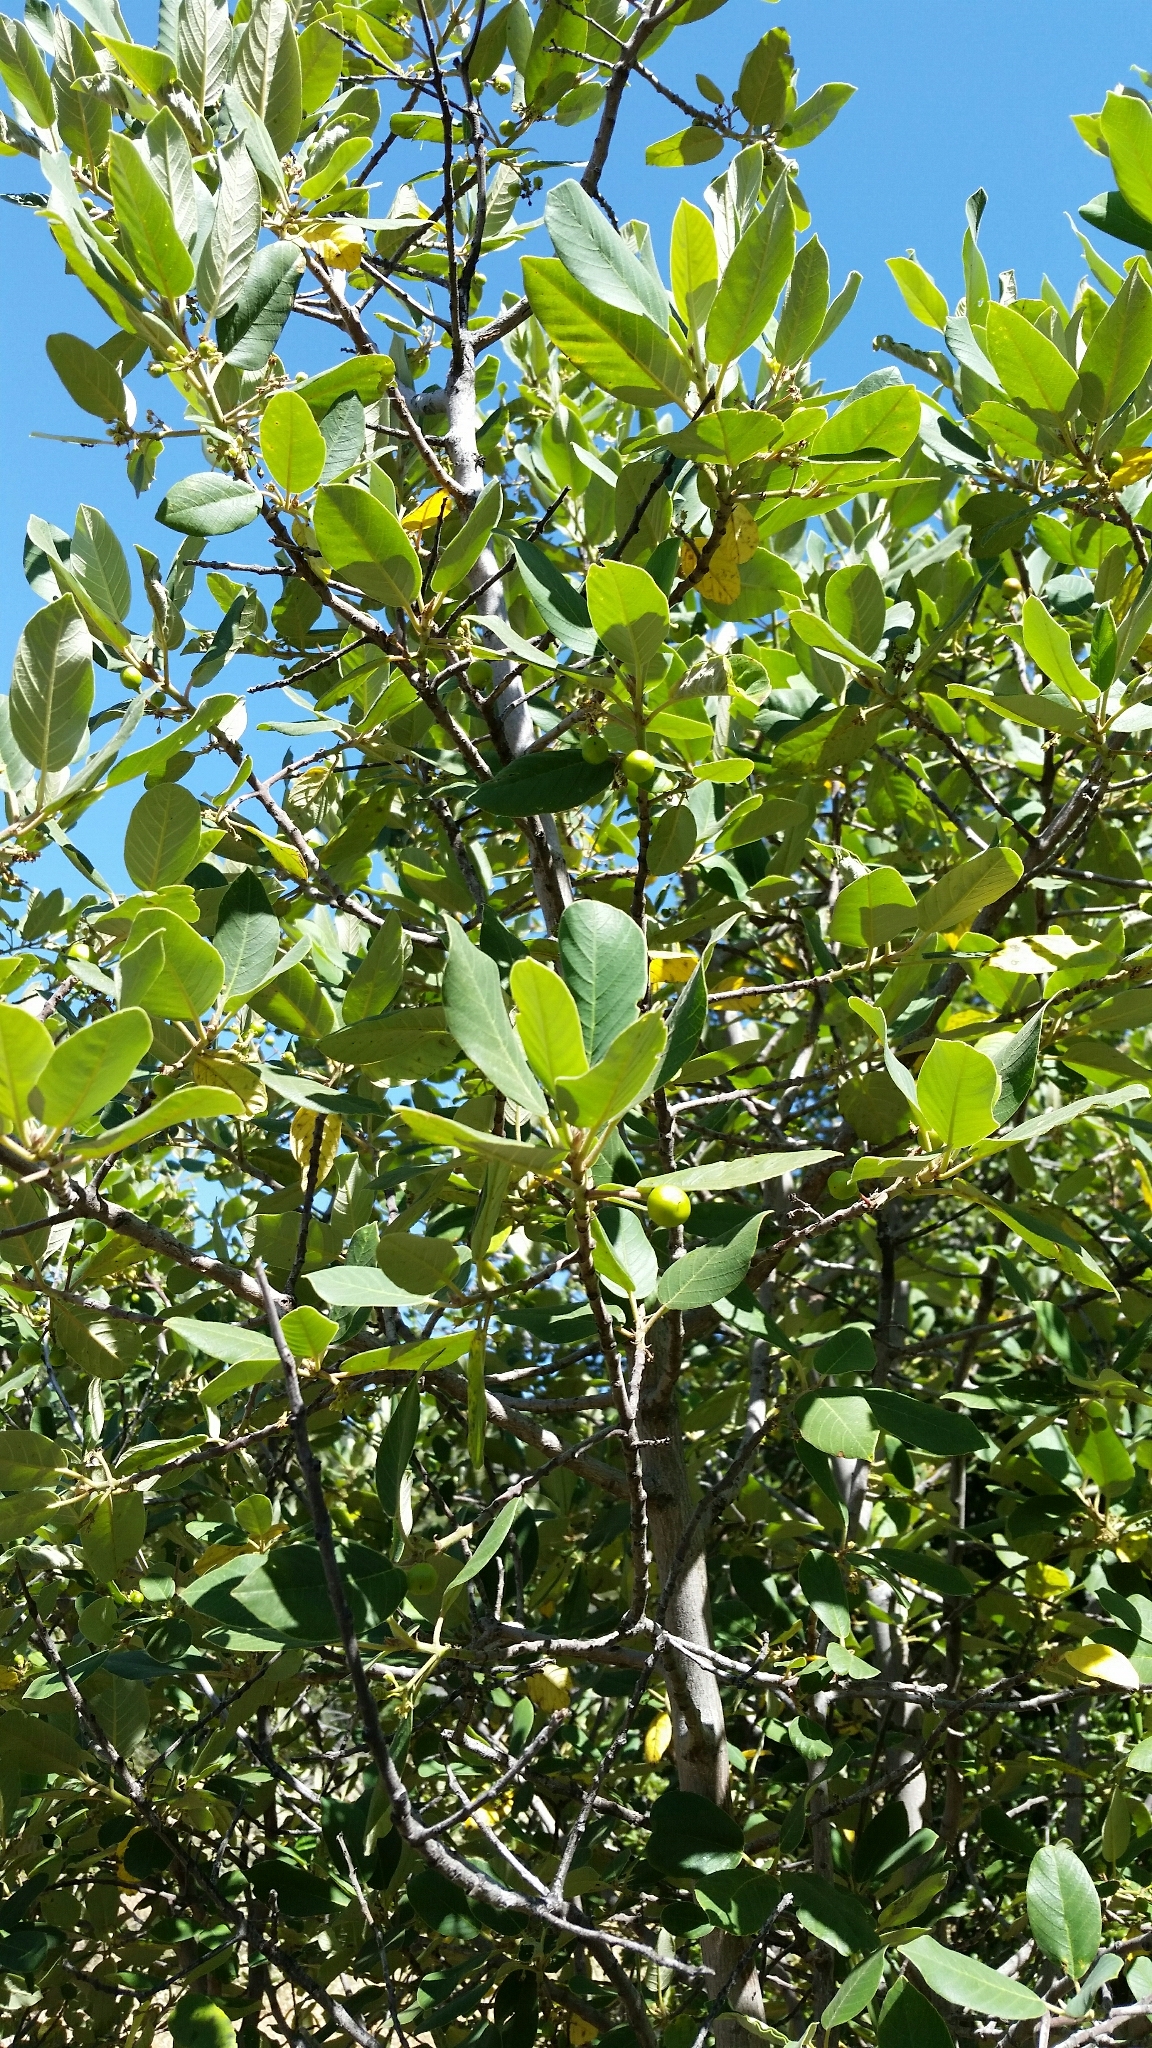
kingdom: Plantae
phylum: Tracheophyta
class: Magnoliopsida
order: Rosales
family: Rhamnaceae
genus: Frangula
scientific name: Frangula californica
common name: California buckthorn
